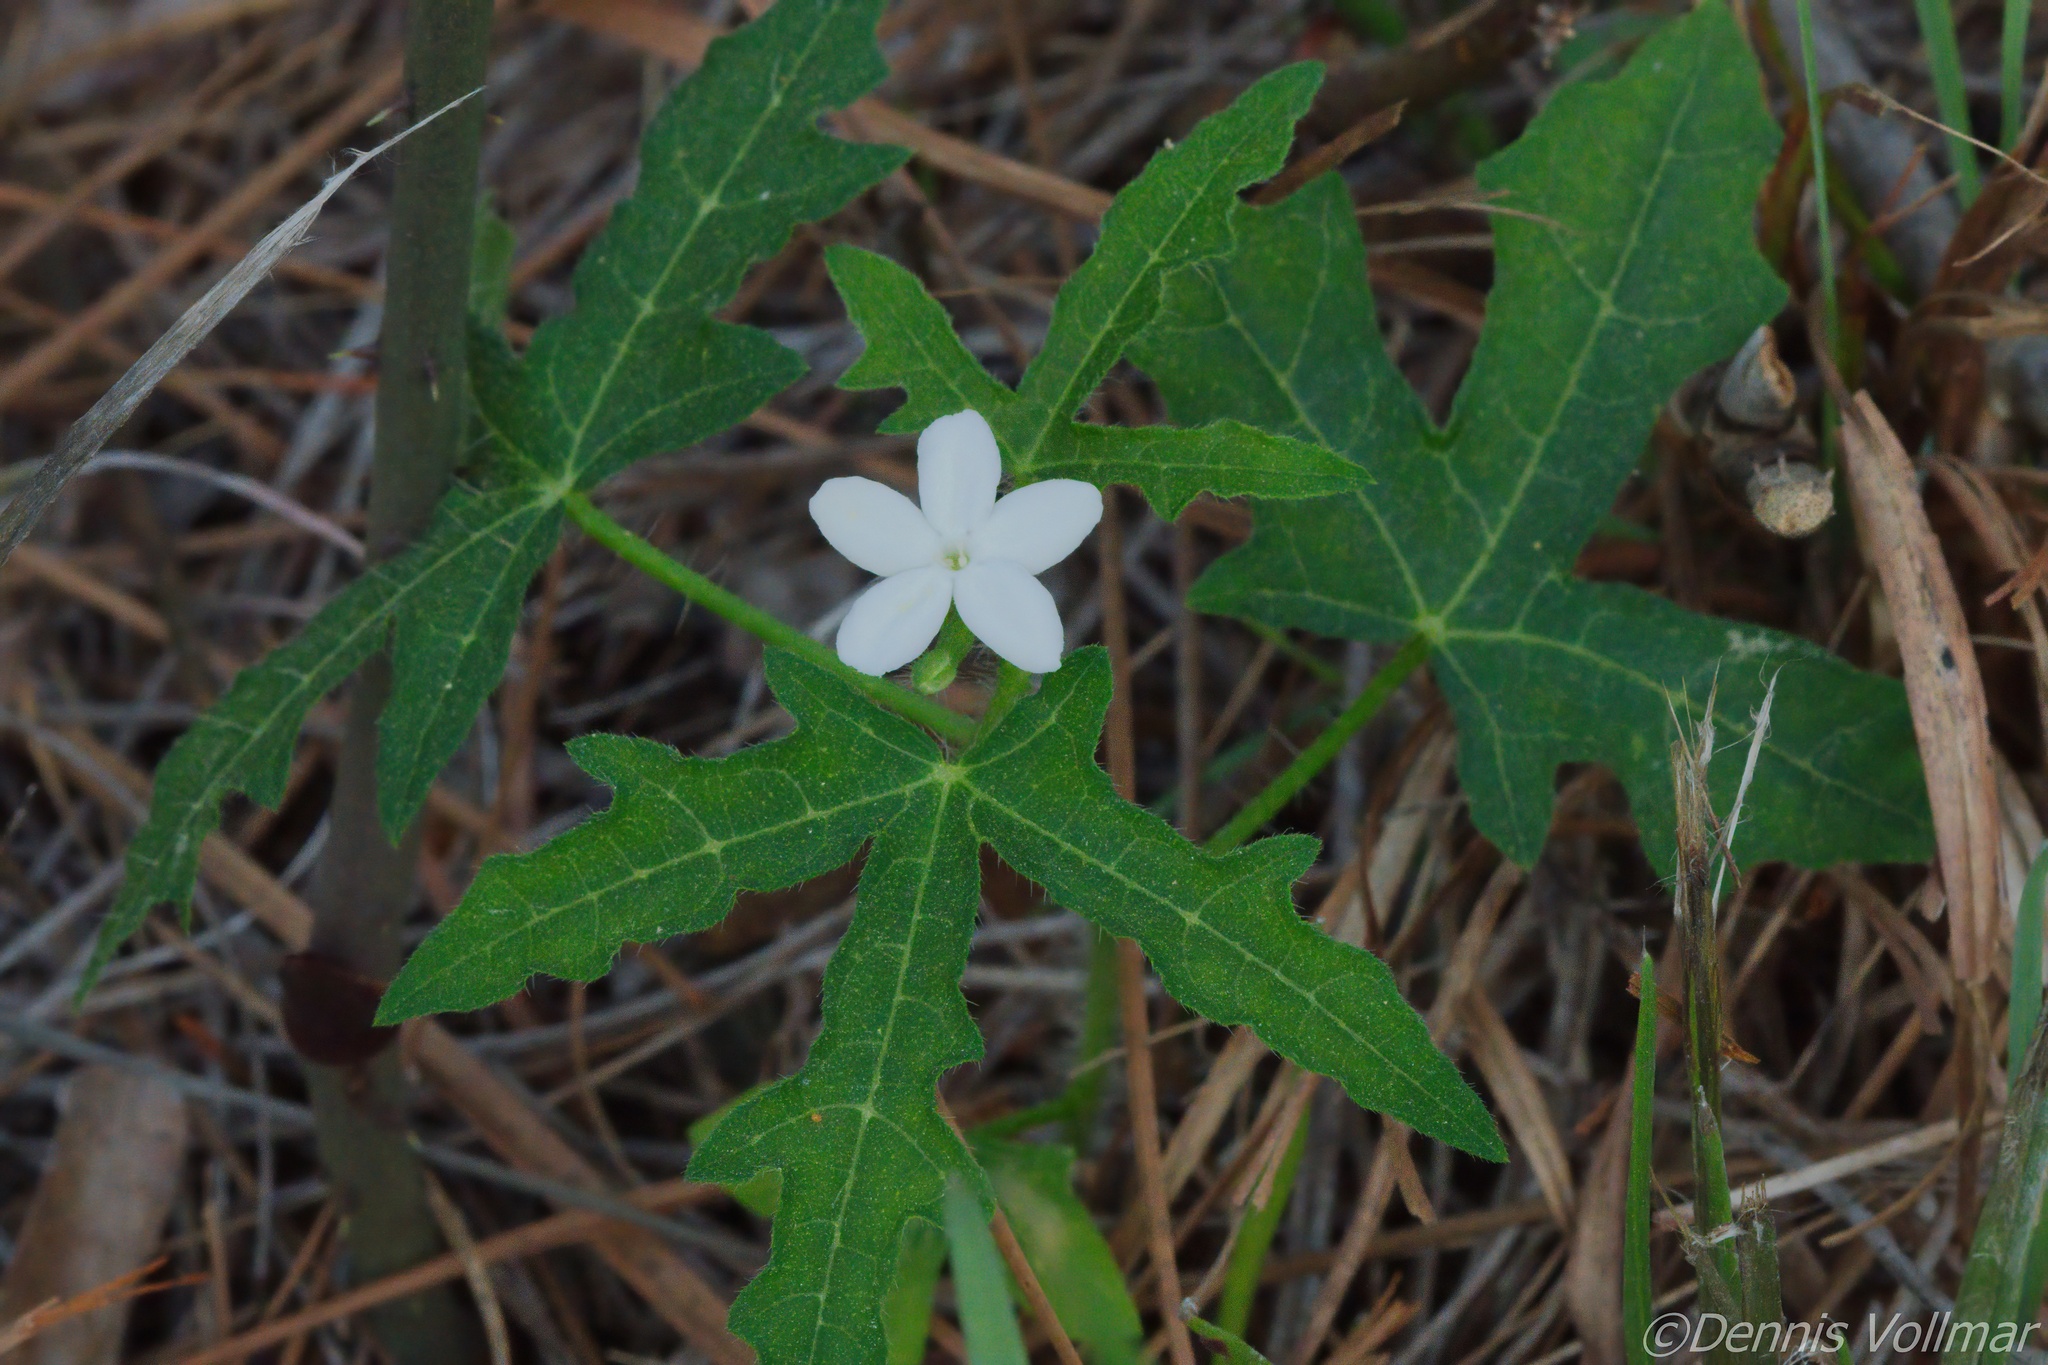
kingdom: Plantae
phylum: Tracheophyta
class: Magnoliopsida
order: Malpighiales
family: Euphorbiaceae
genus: Cnidoscolus
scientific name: Cnidoscolus stimulosus
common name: Bull-nettle
